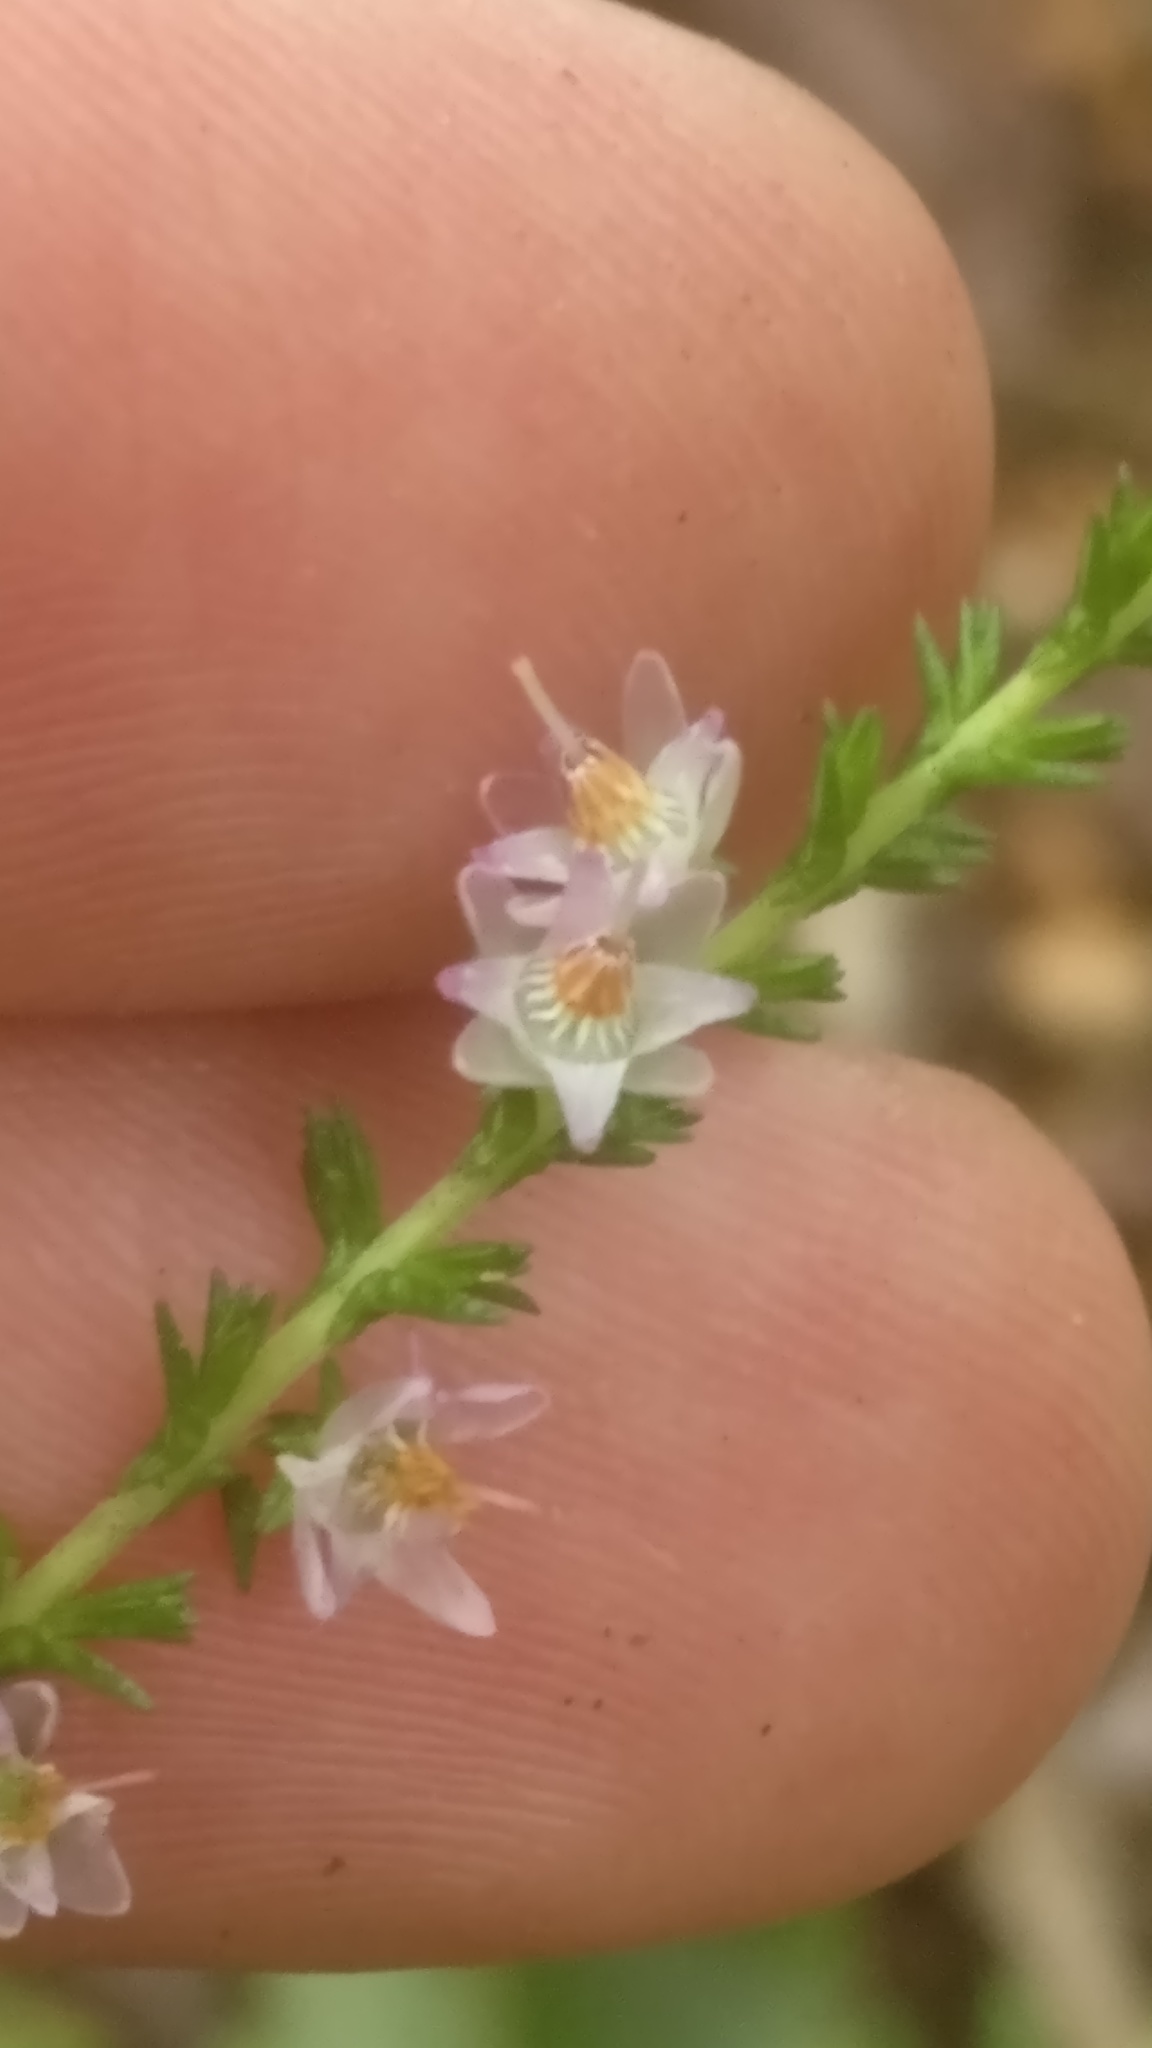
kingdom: Plantae
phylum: Tracheophyta
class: Magnoliopsida
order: Ericales
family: Ericaceae
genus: Calluna
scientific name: Calluna vulgaris
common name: Heather
